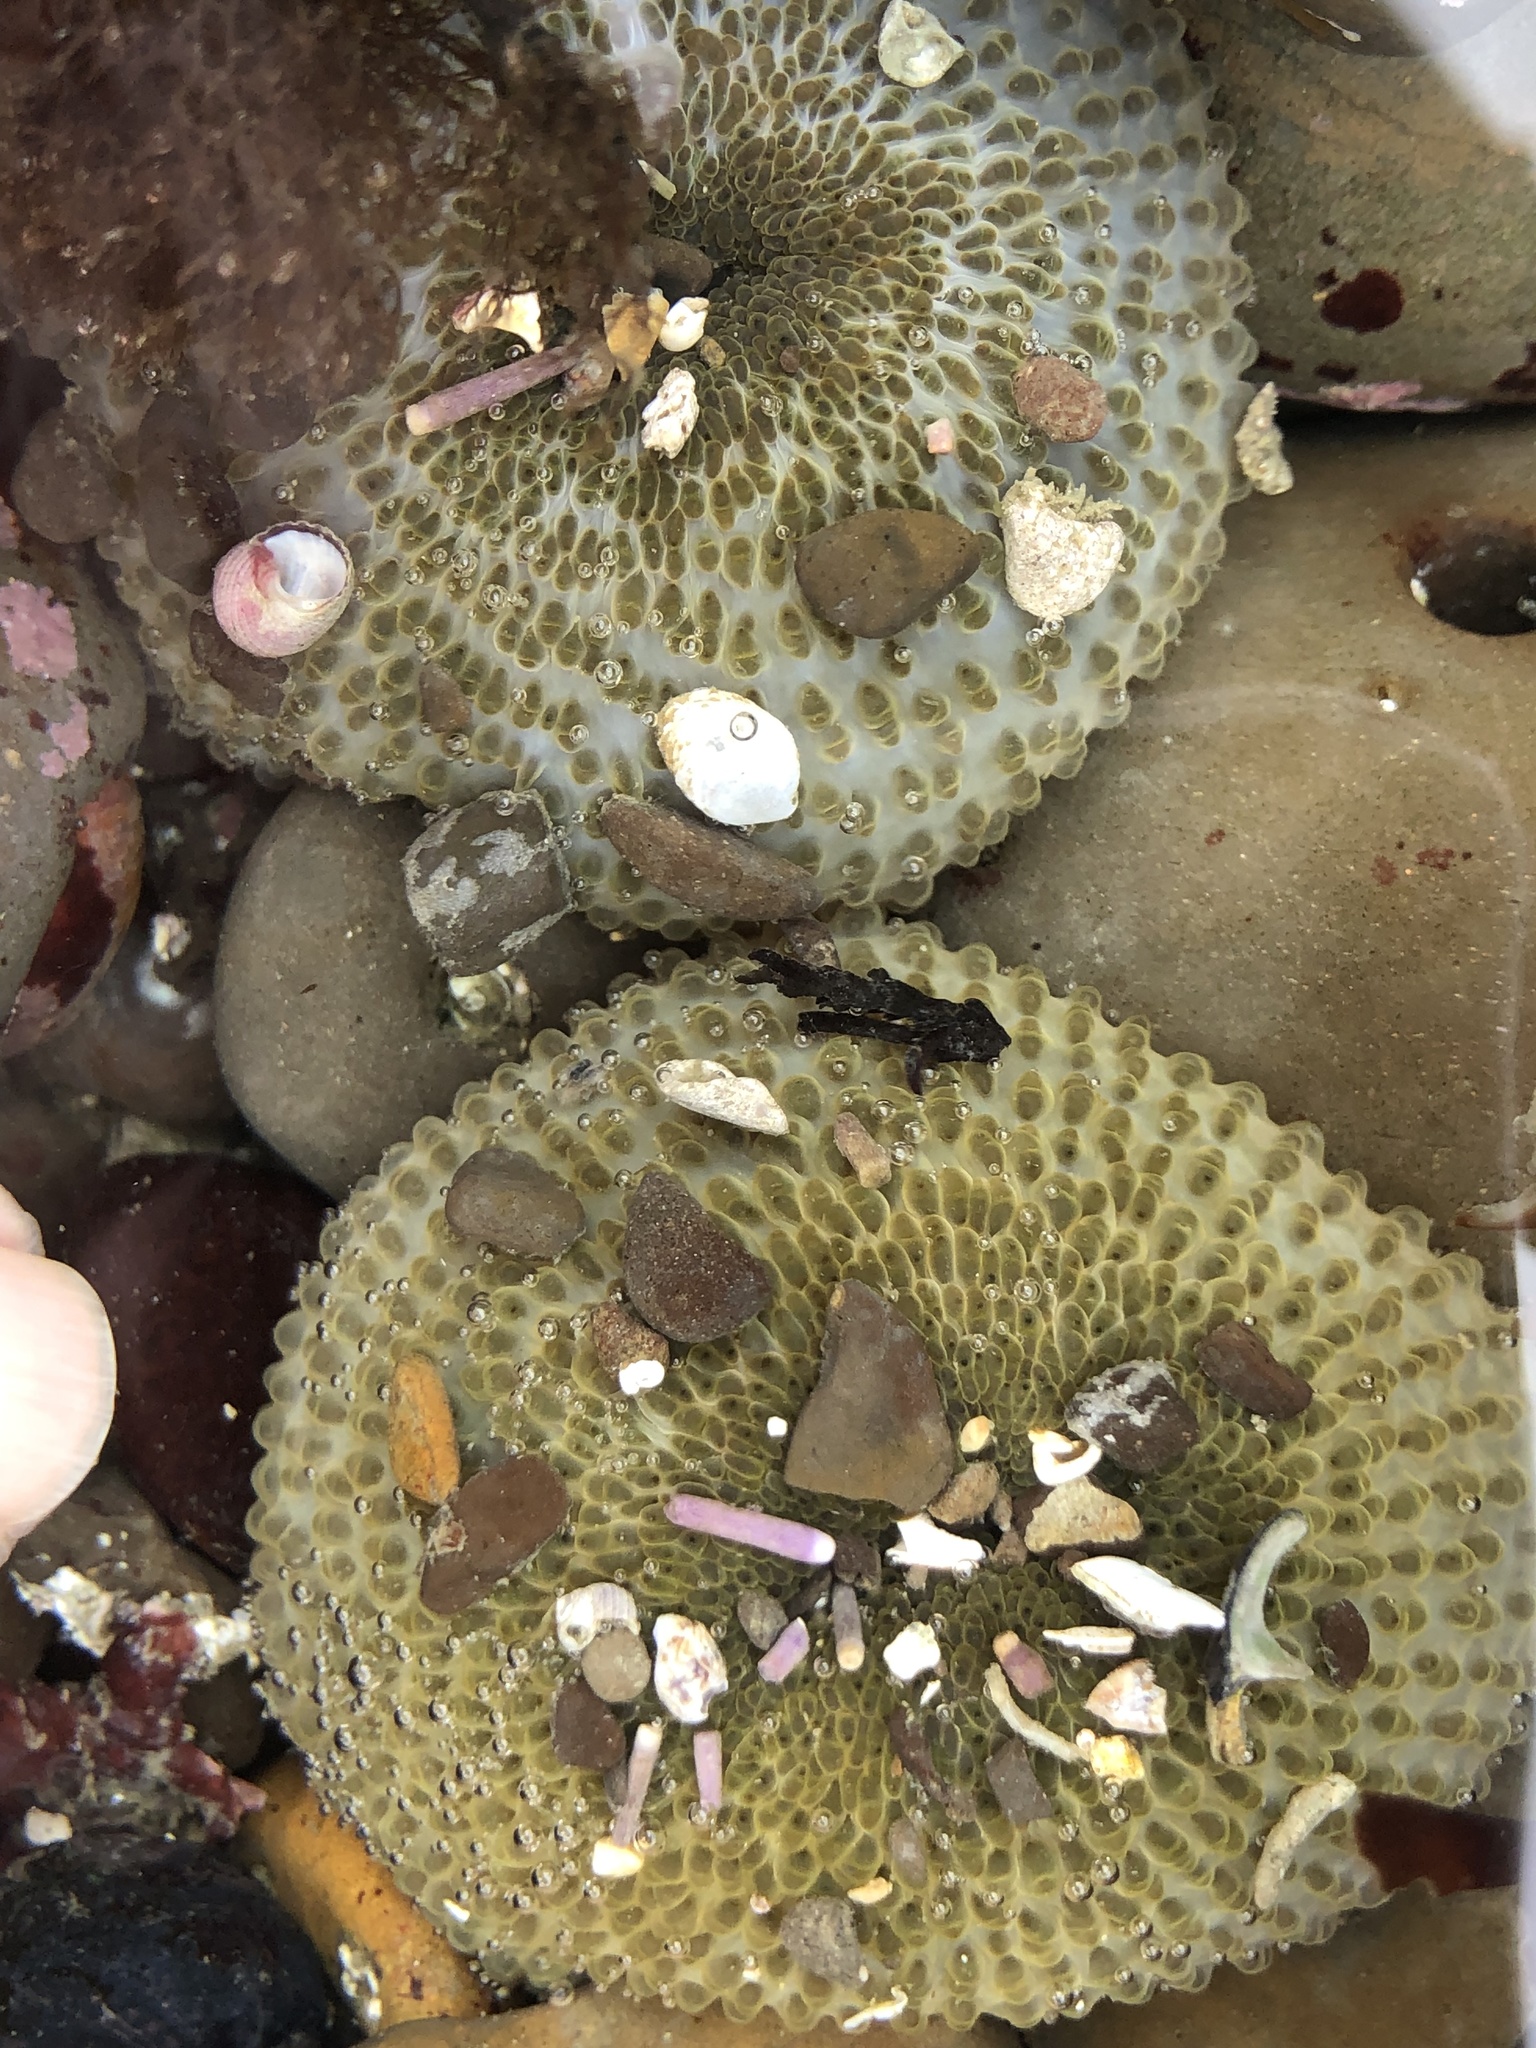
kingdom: Animalia
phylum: Cnidaria
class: Anthozoa
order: Actiniaria
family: Actiniidae
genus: Anthopleura
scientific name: Anthopleura elegantissima
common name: Clonal anemone
